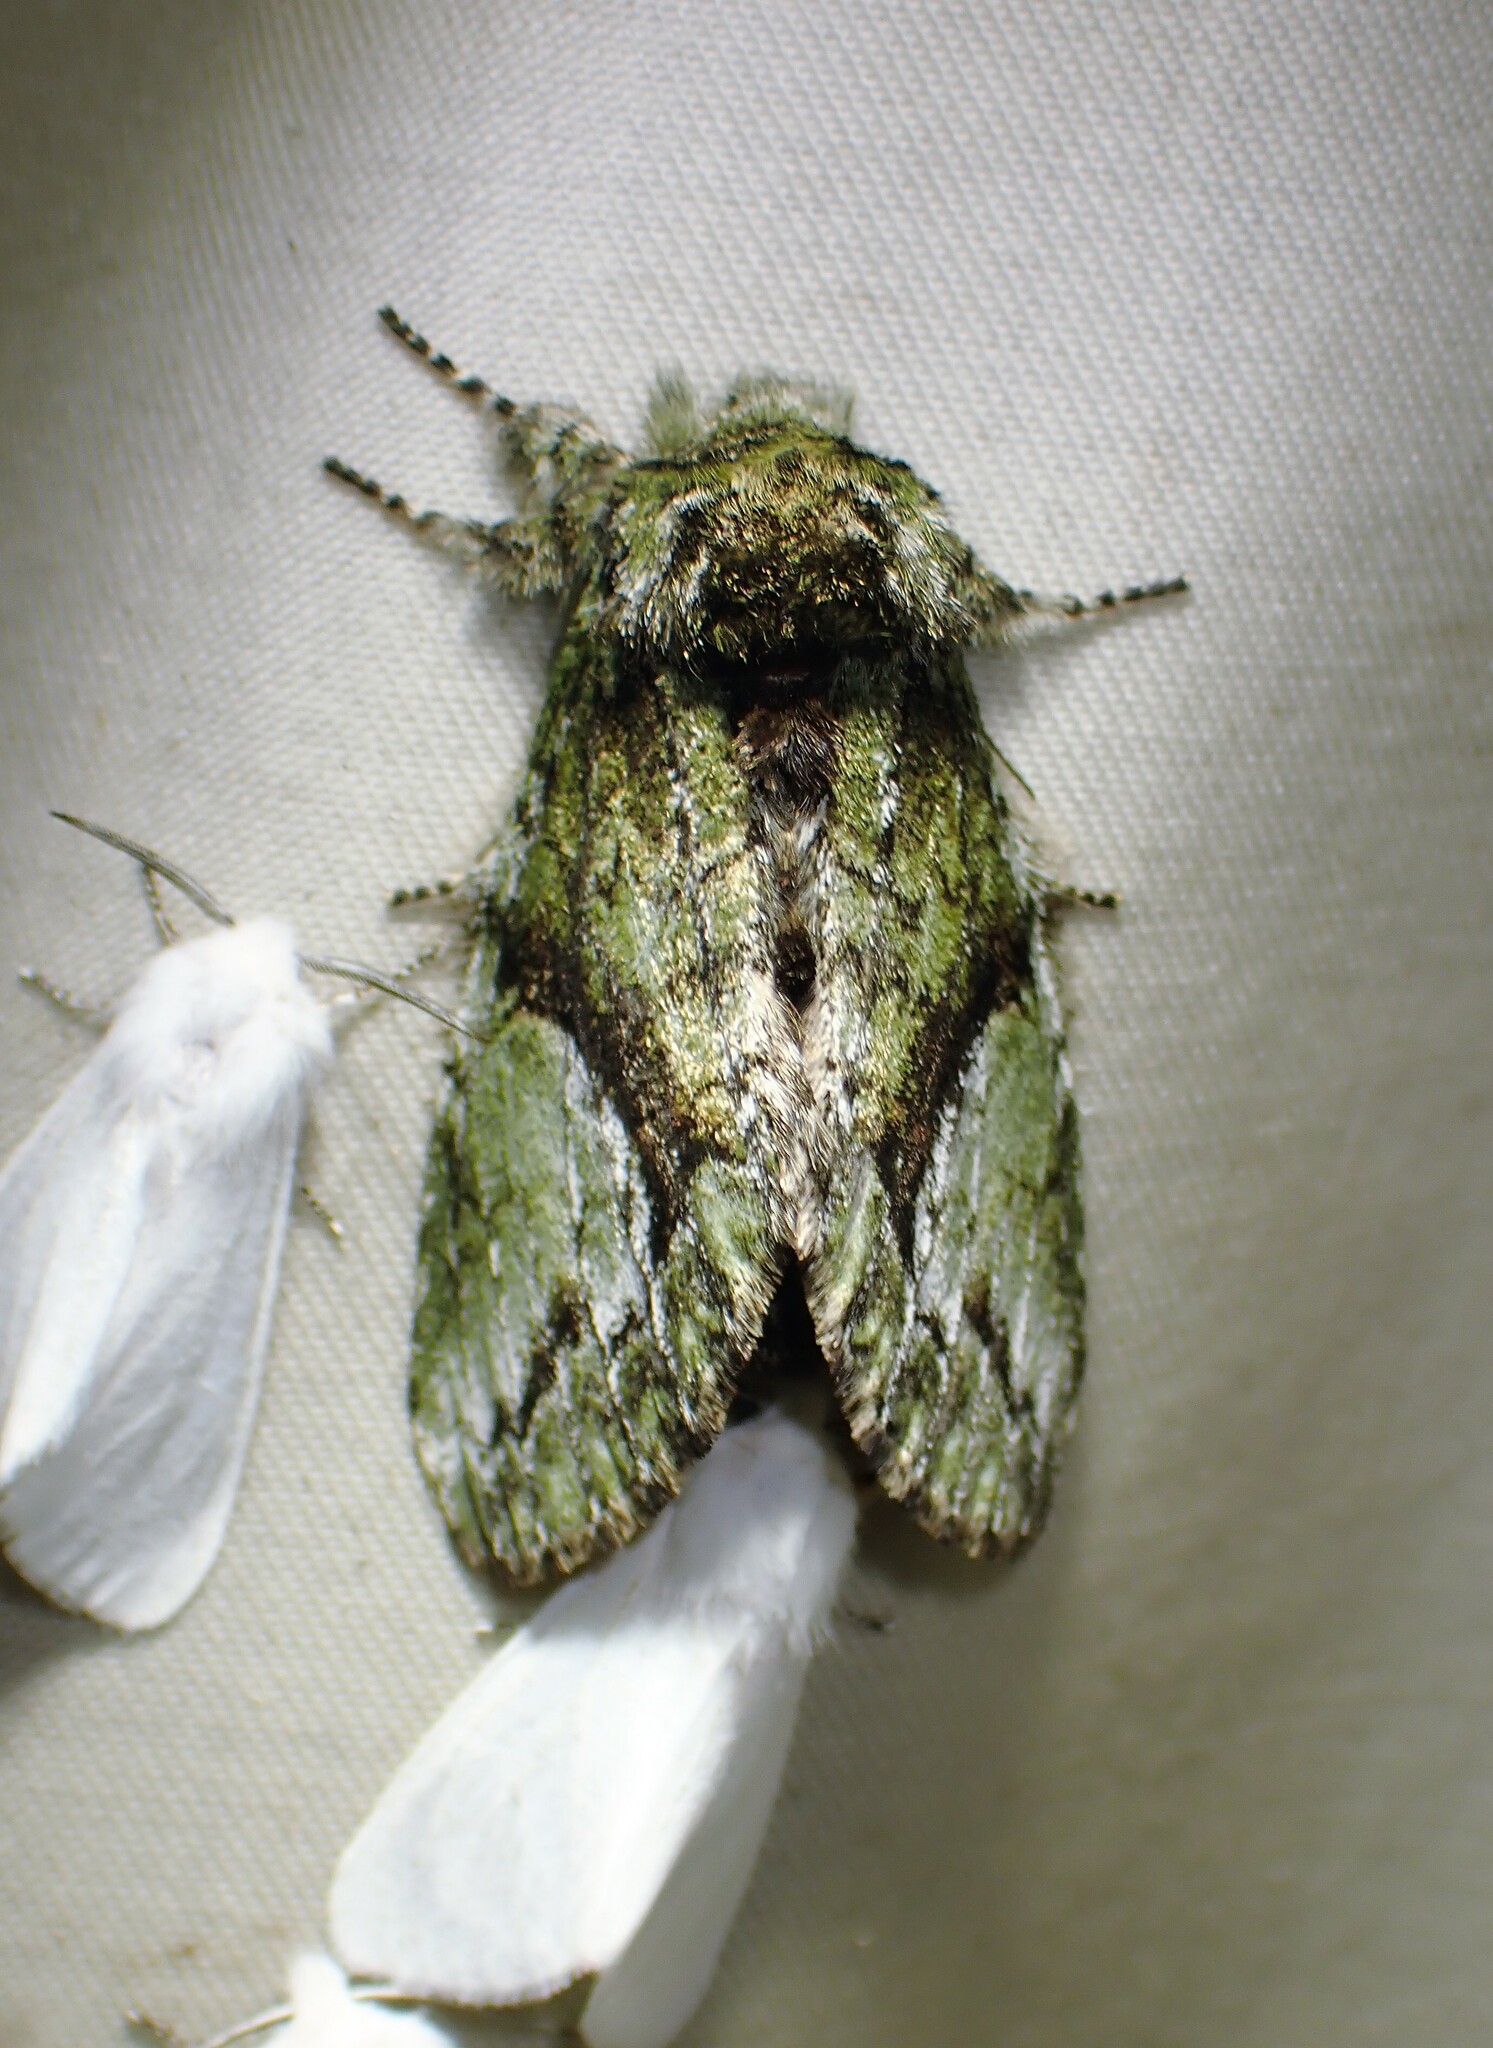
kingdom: Animalia
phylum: Arthropoda
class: Insecta
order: Lepidoptera
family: Notodontidae
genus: Heterocampa
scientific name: Heterocampa
